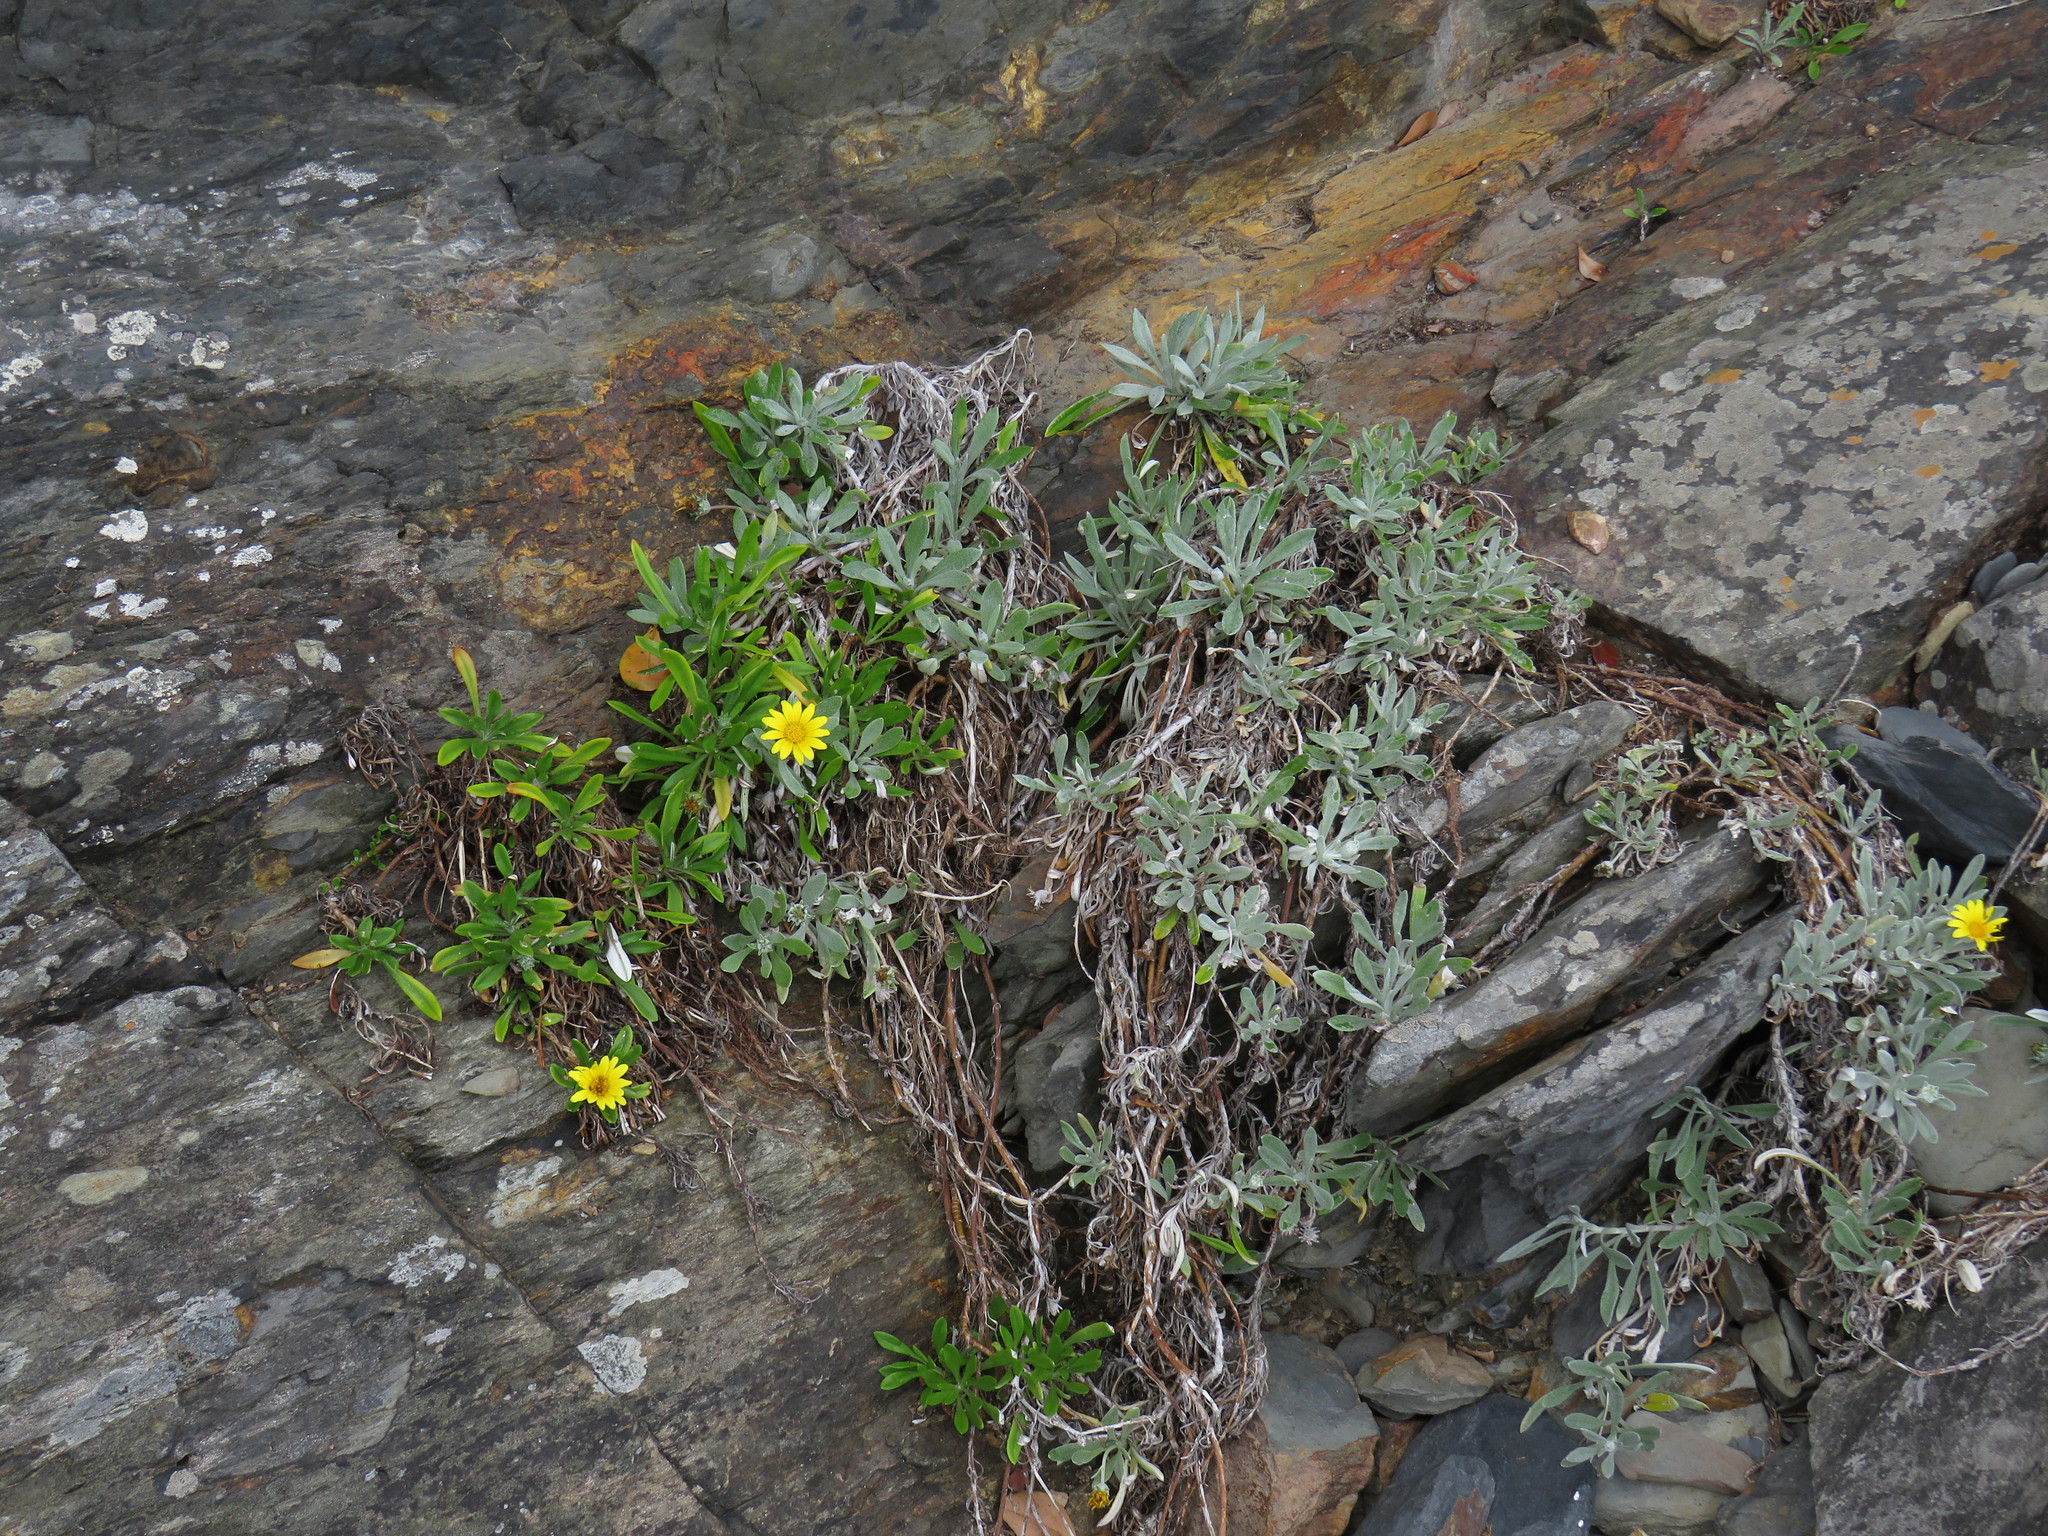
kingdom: Plantae
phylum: Tracheophyta
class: Magnoliopsida
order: Asterales
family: Asteraceae
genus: Gazania
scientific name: Gazania rigens
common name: Treasureflower
